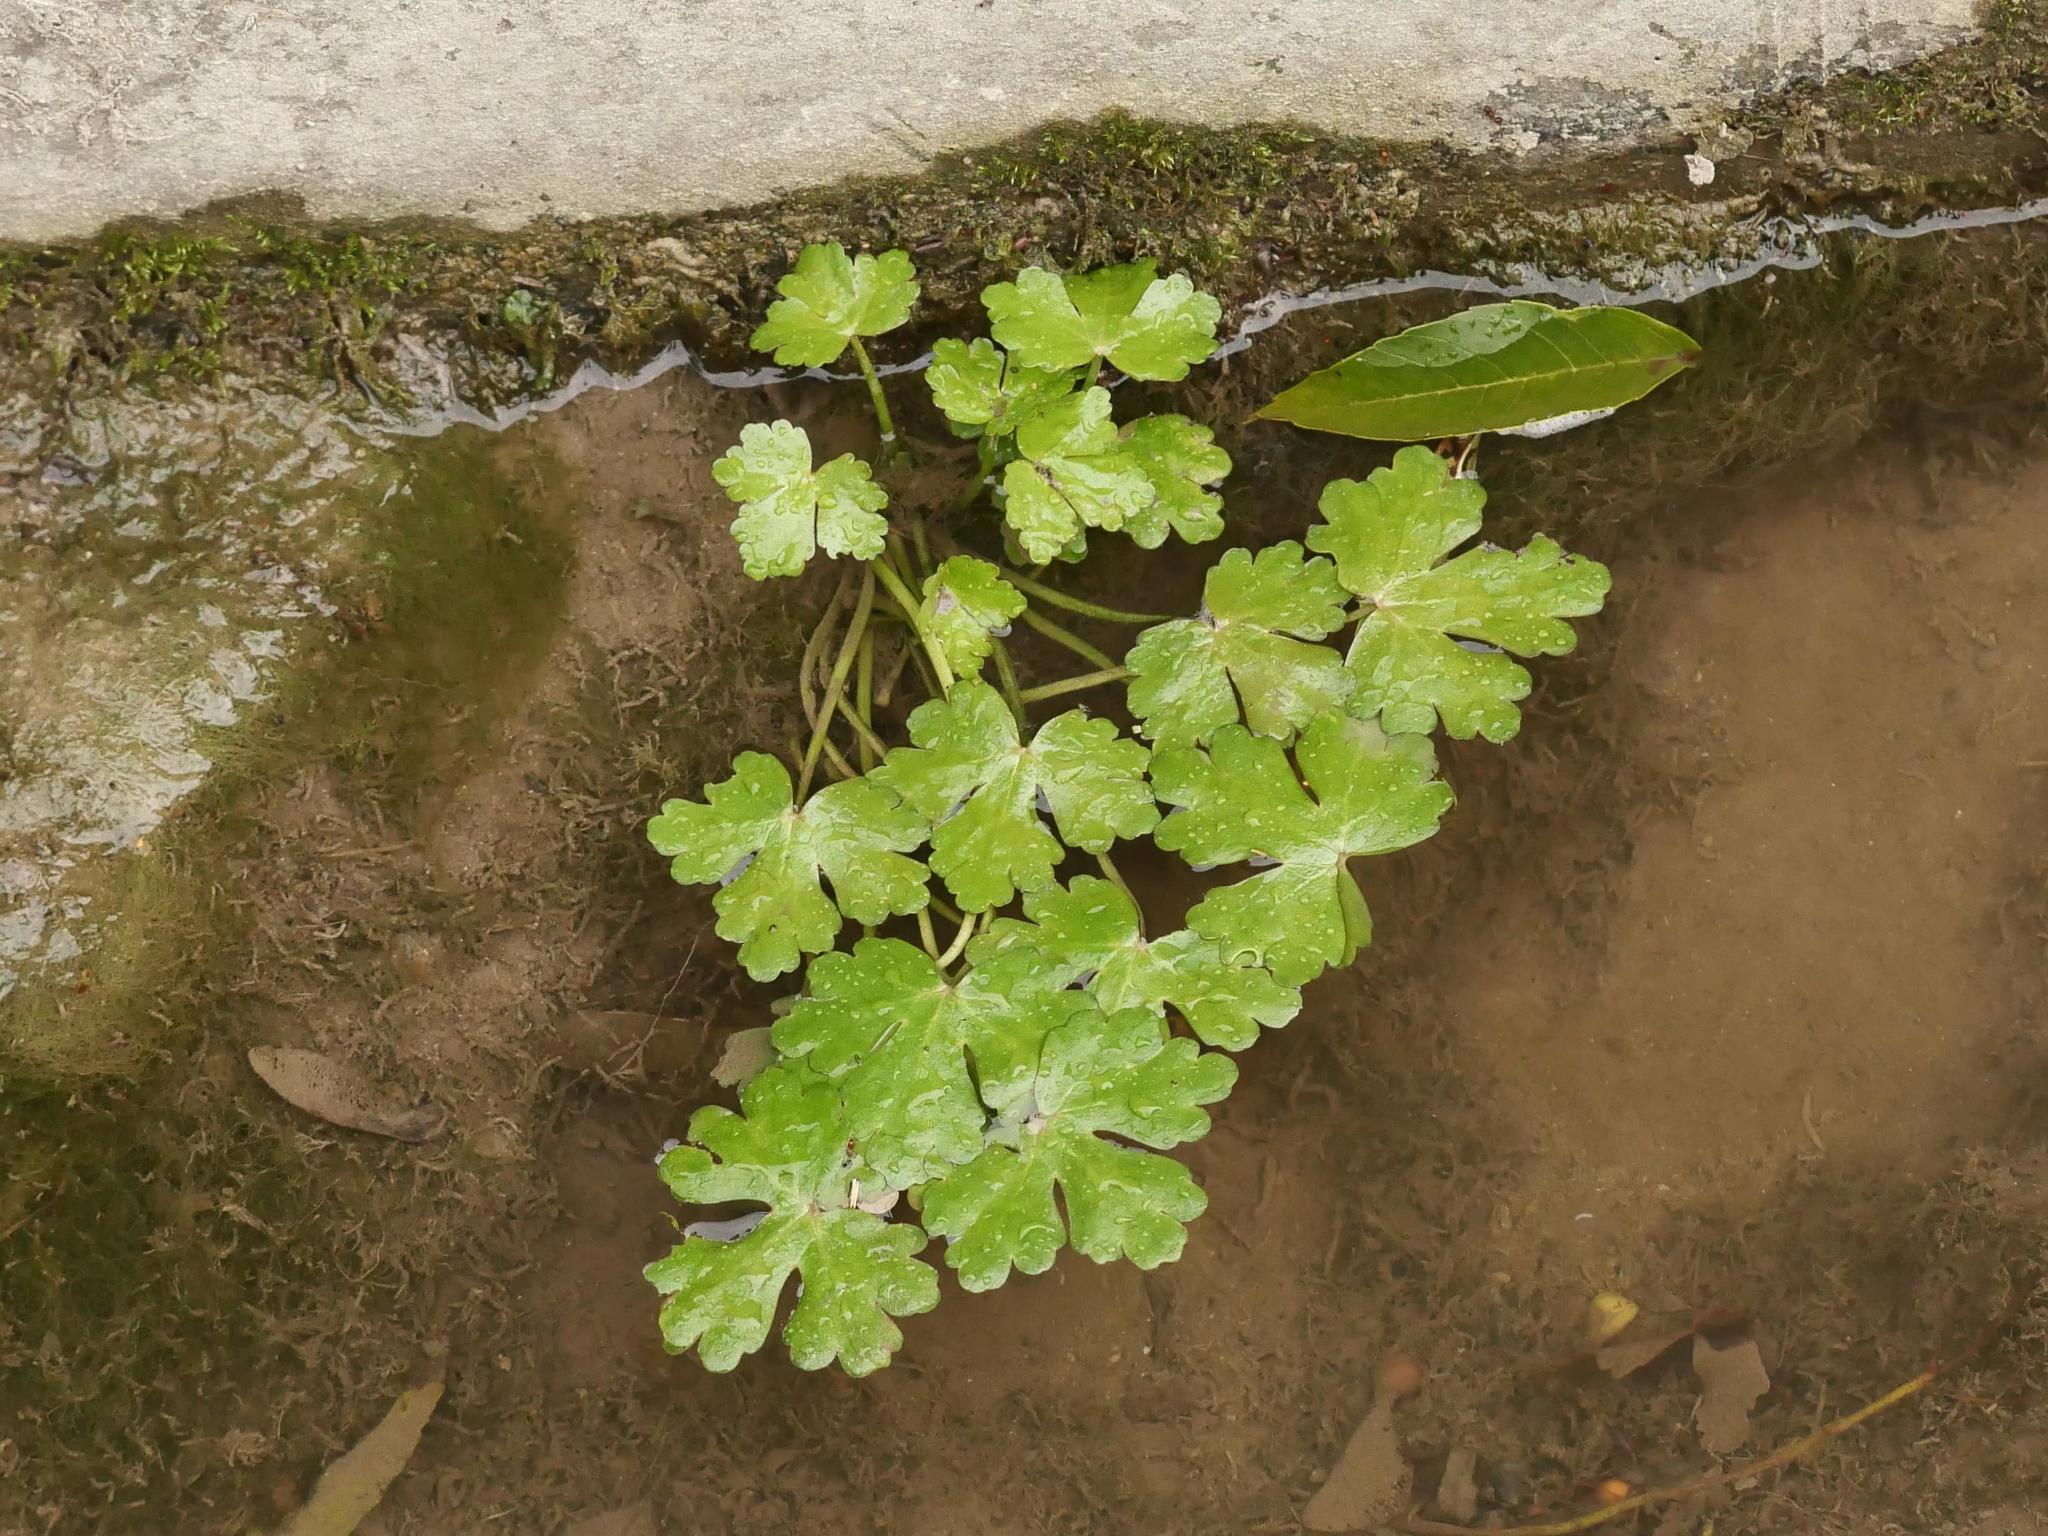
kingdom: Plantae
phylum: Tracheophyta
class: Magnoliopsida
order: Ranunculales
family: Ranunculaceae
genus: Ranunculus
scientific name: Ranunculus sceleratus
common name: Celery-leaved buttercup
